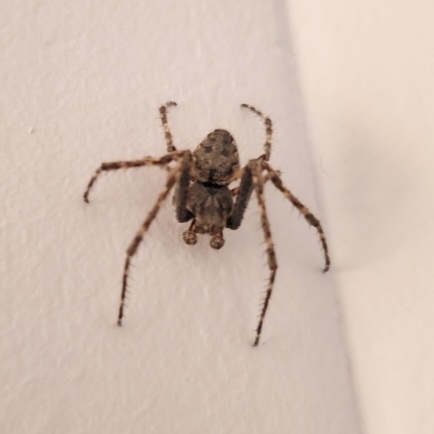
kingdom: Animalia
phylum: Arthropoda
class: Arachnida
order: Araneae
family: Araneidae
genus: Nuctenea
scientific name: Nuctenea umbratica
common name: Toad spider
